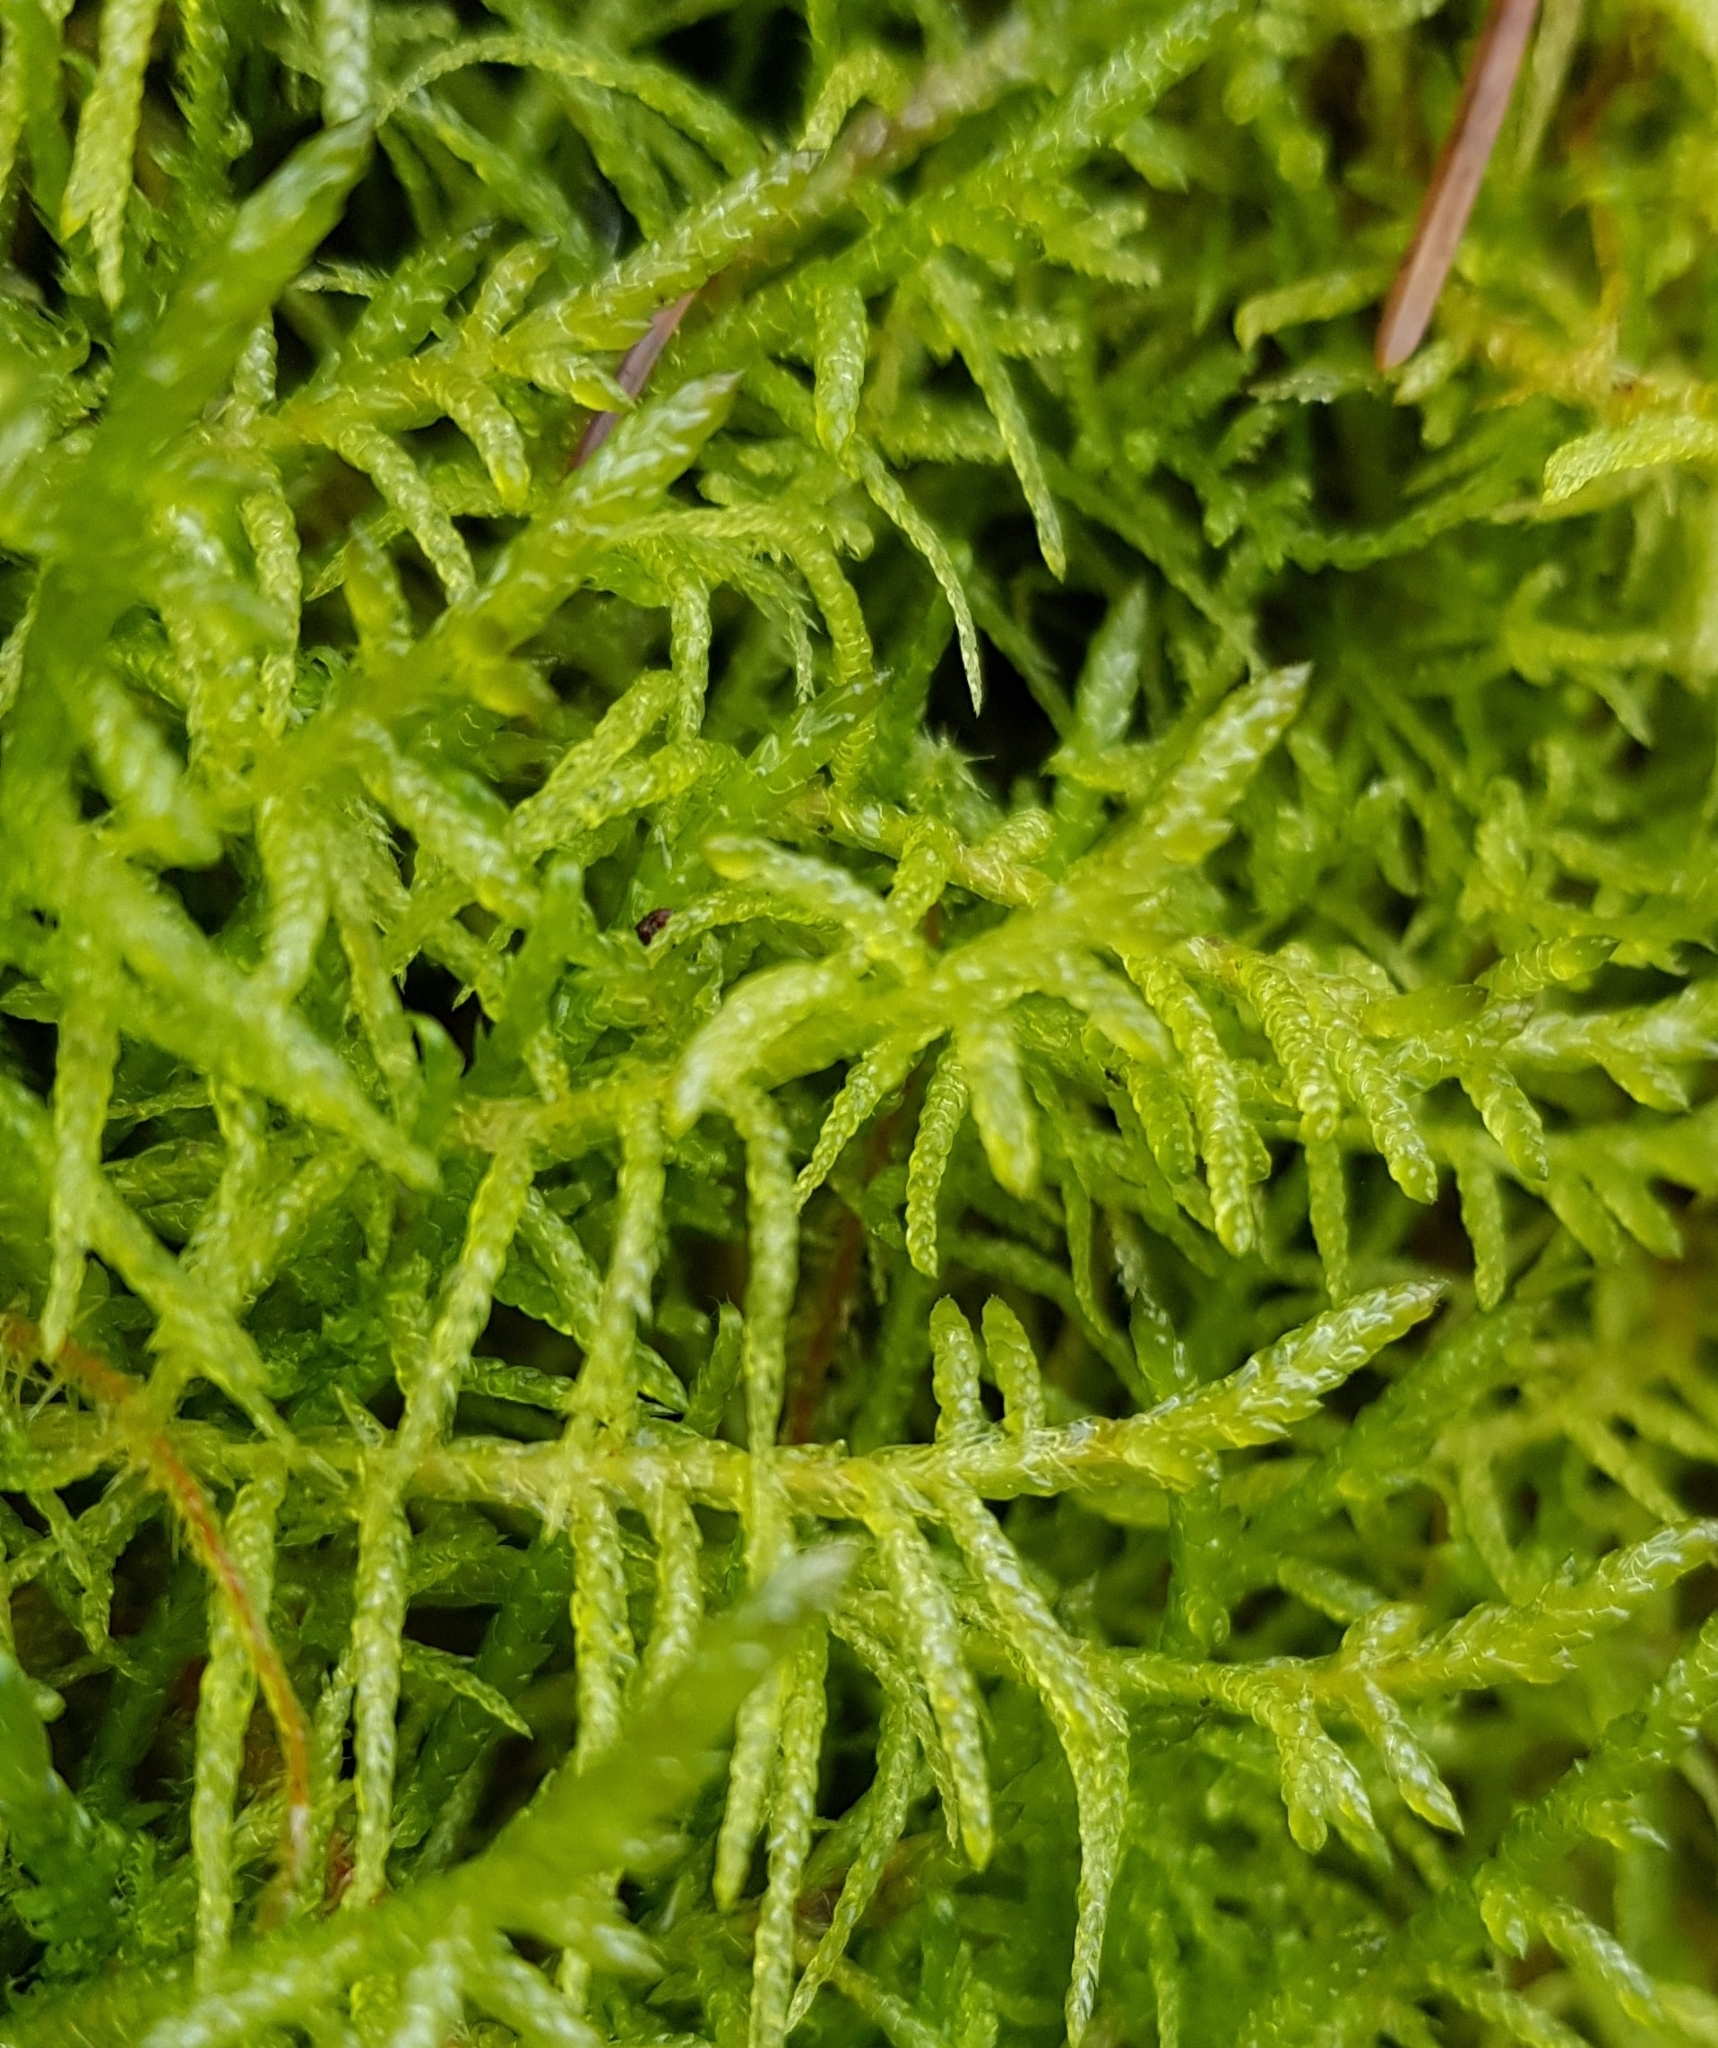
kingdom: Plantae
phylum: Bryophyta
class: Bryopsida
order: Hypnales
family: Brachytheciaceae
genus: Pseudoscleropodium
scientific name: Pseudoscleropodium purum
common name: Neat feather-moss
